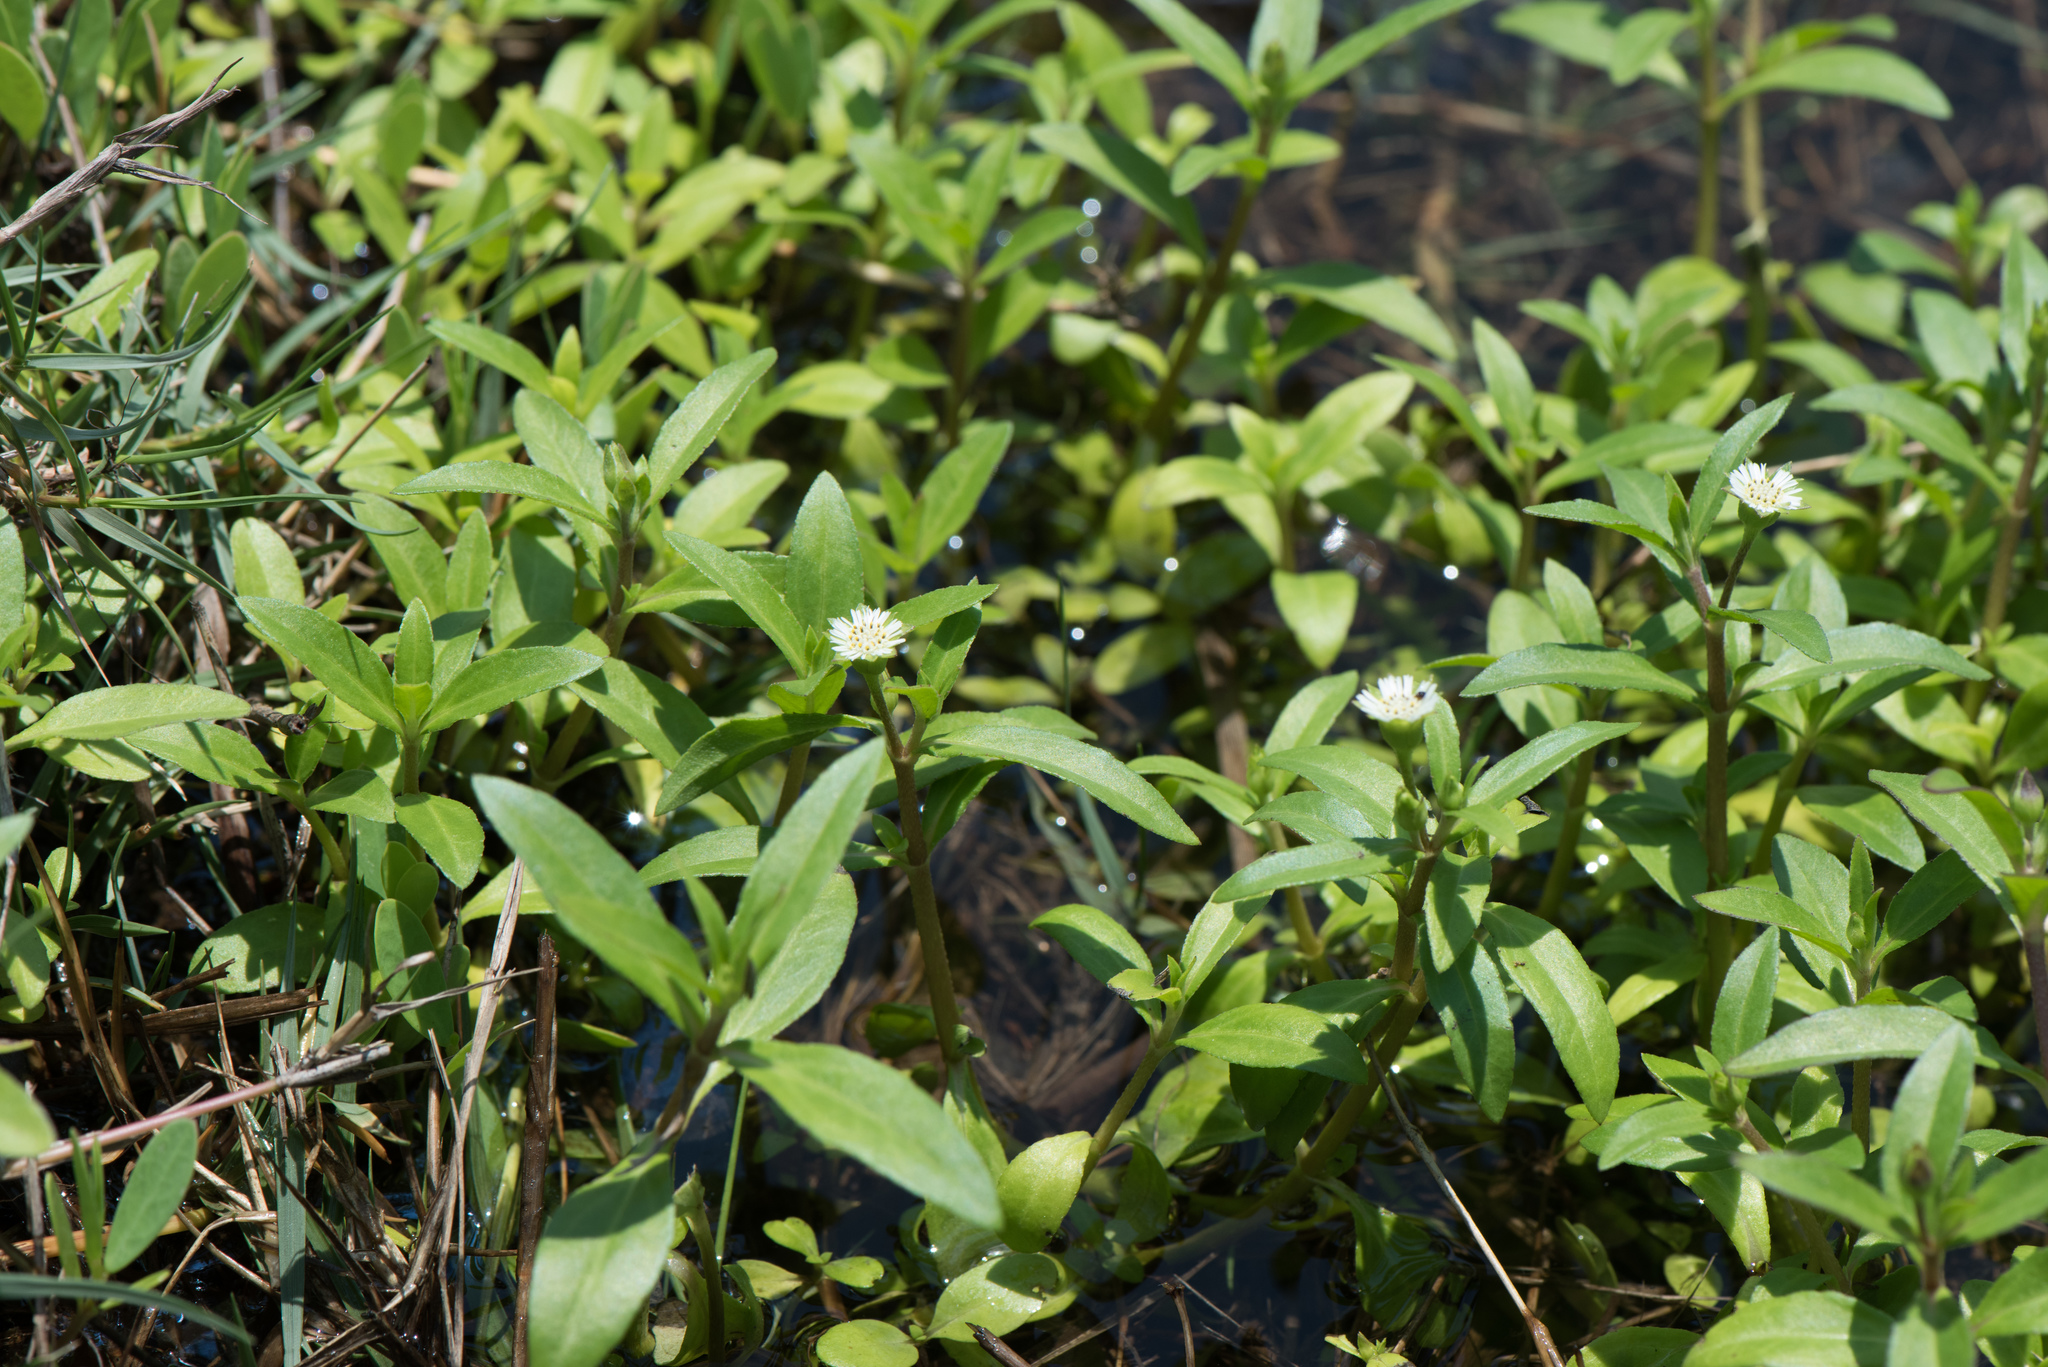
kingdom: Plantae
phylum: Tracheophyta
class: Magnoliopsida
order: Asterales
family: Asteraceae
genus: Eclipta
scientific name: Eclipta prostrata
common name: False daisy
